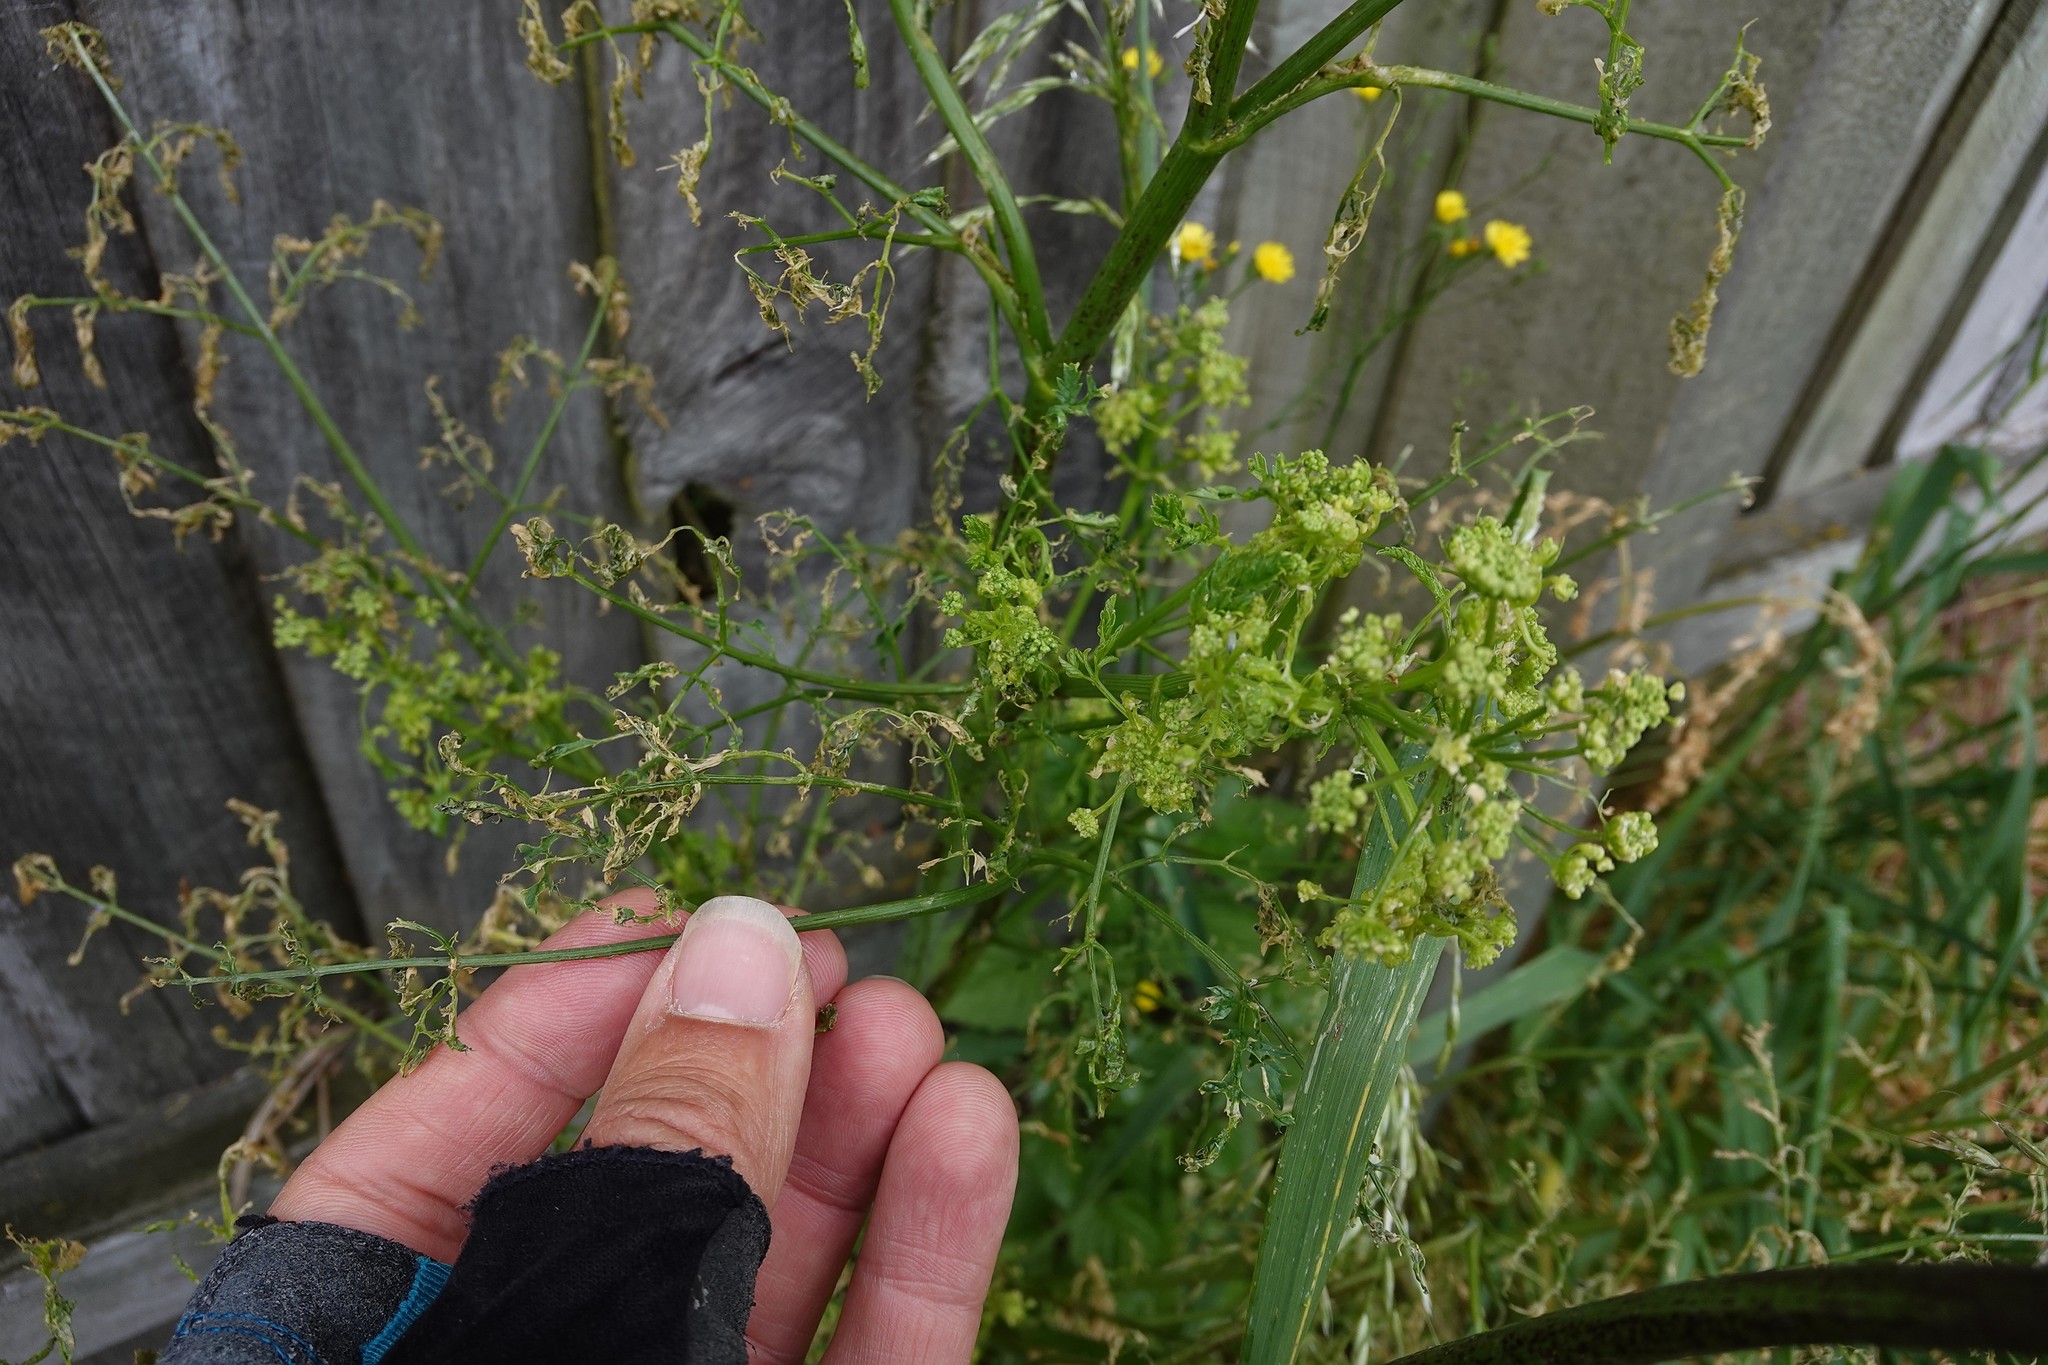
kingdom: Animalia
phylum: Arthropoda
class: Insecta
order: Lepidoptera
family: Depressariidae
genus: Agonopterix
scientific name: Agonopterix alstroemeriana
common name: Moth
